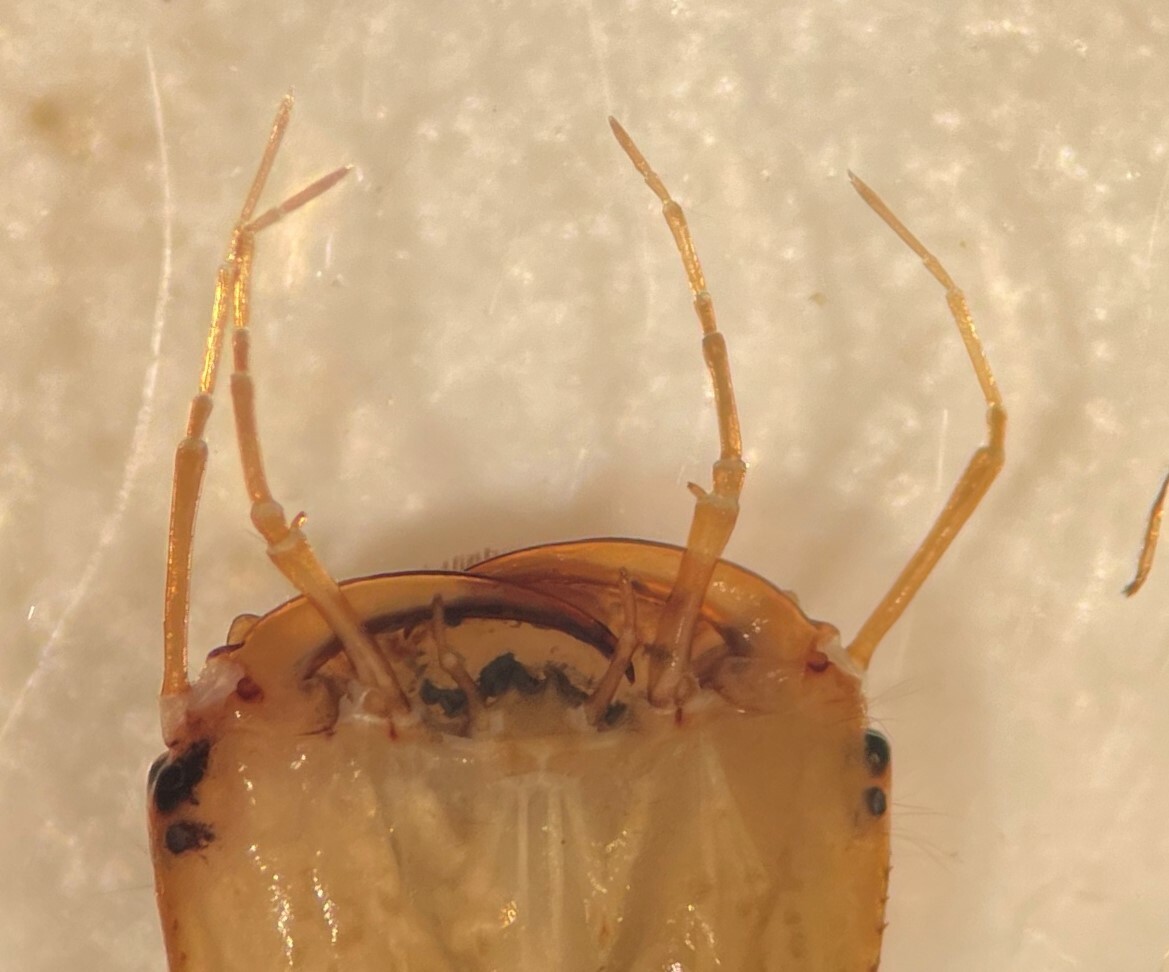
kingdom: Animalia
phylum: Arthropoda
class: Insecta
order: Coleoptera
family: Dytiscidae
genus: Hydaticus
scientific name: Hydaticus
